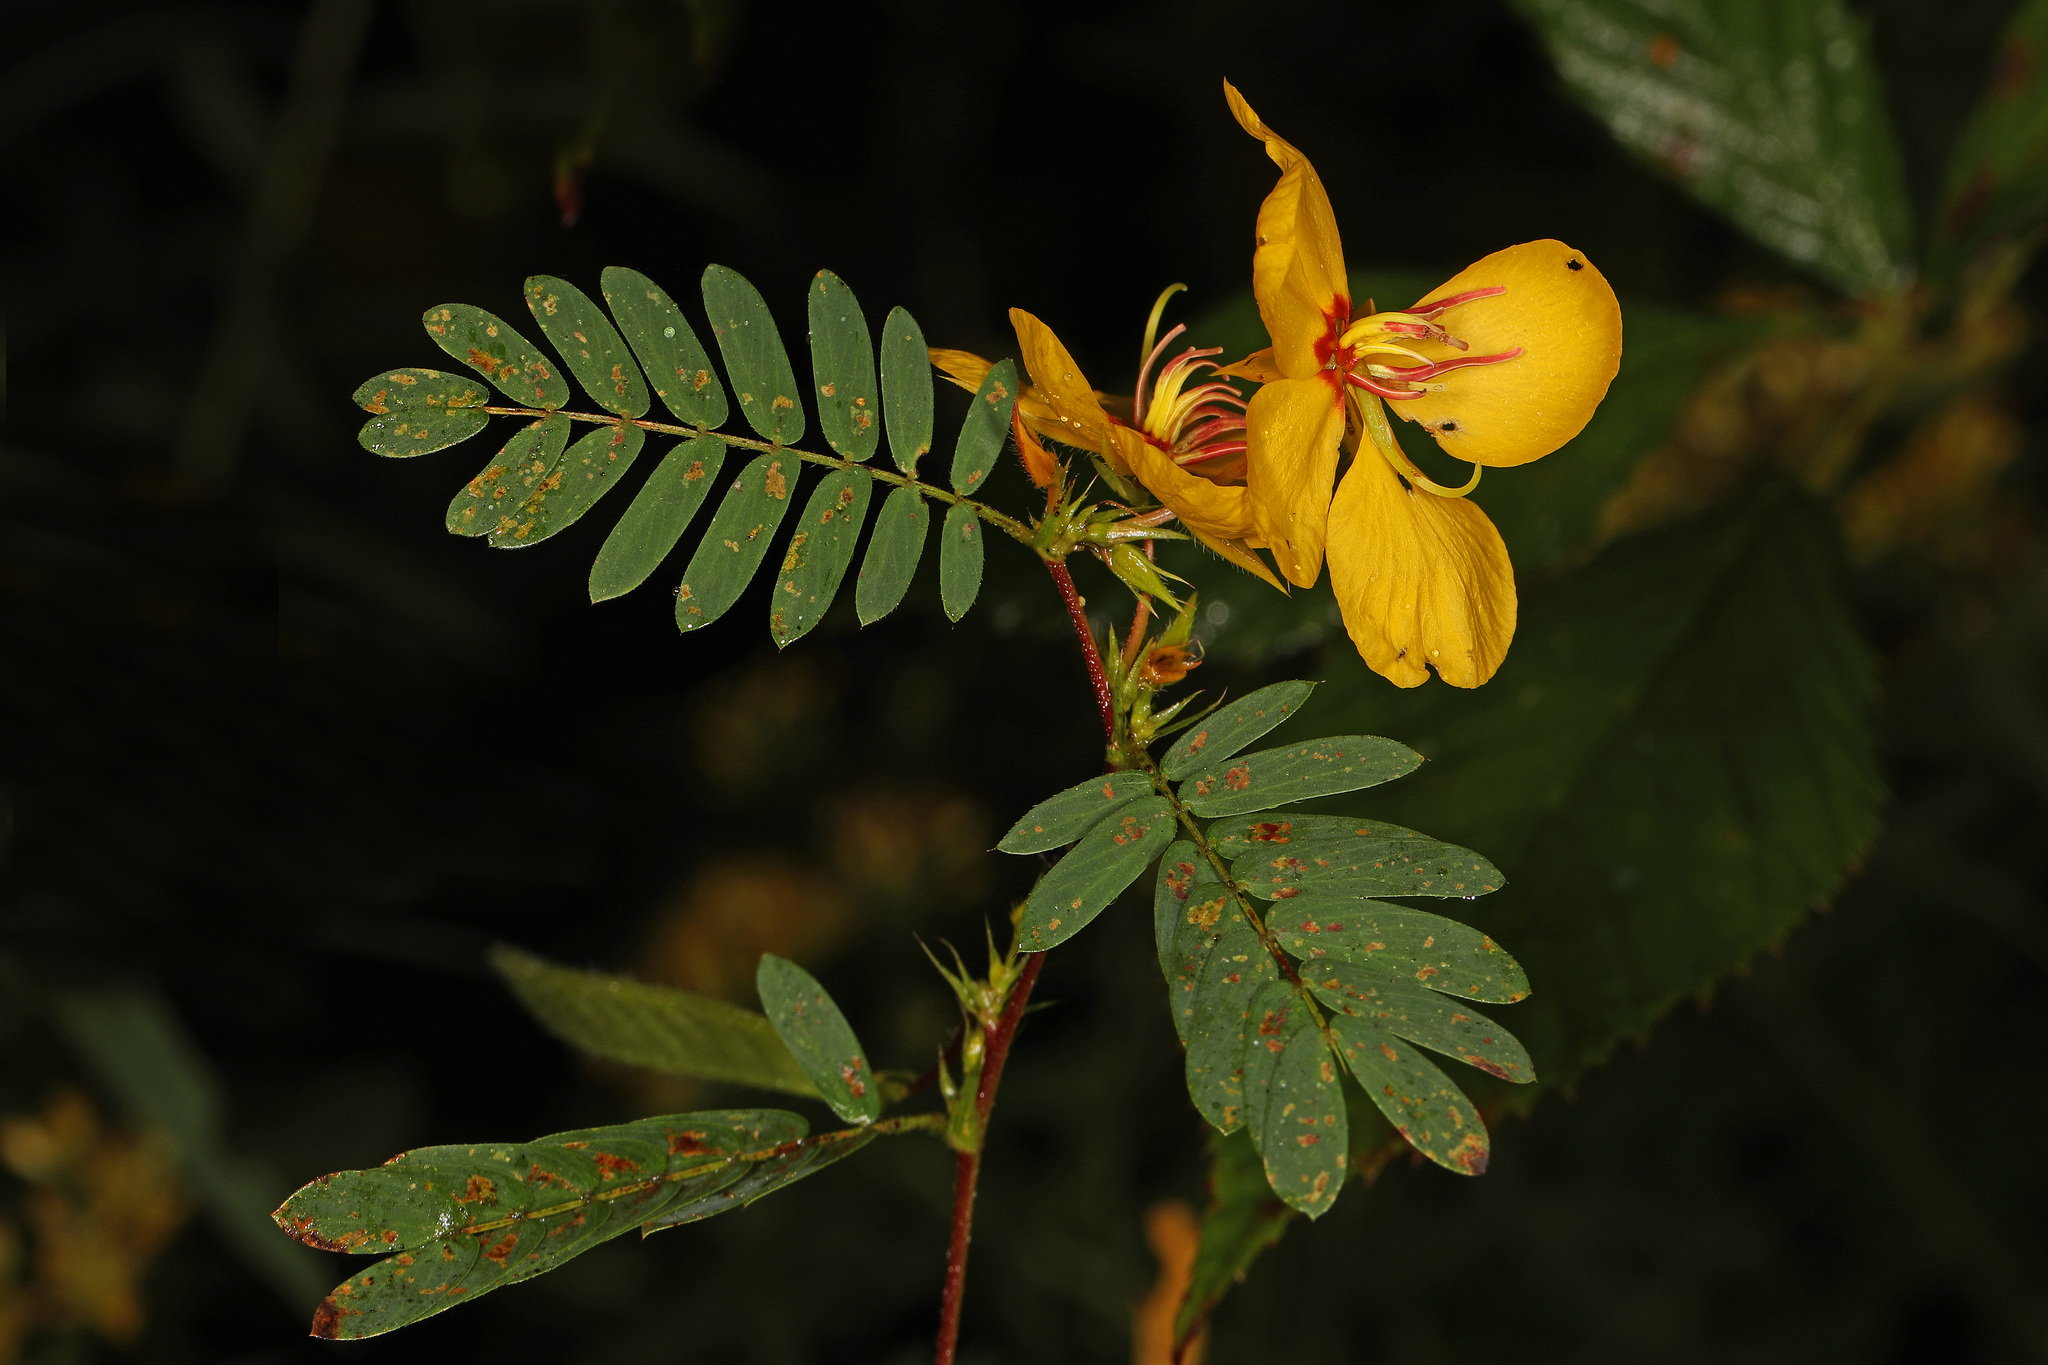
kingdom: Plantae
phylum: Tracheophyta
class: Magnoliopsida
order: Fabales
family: Fabaceae
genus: Chamaecrista
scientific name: Chamaecrista fasciculata
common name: Golden cassia
